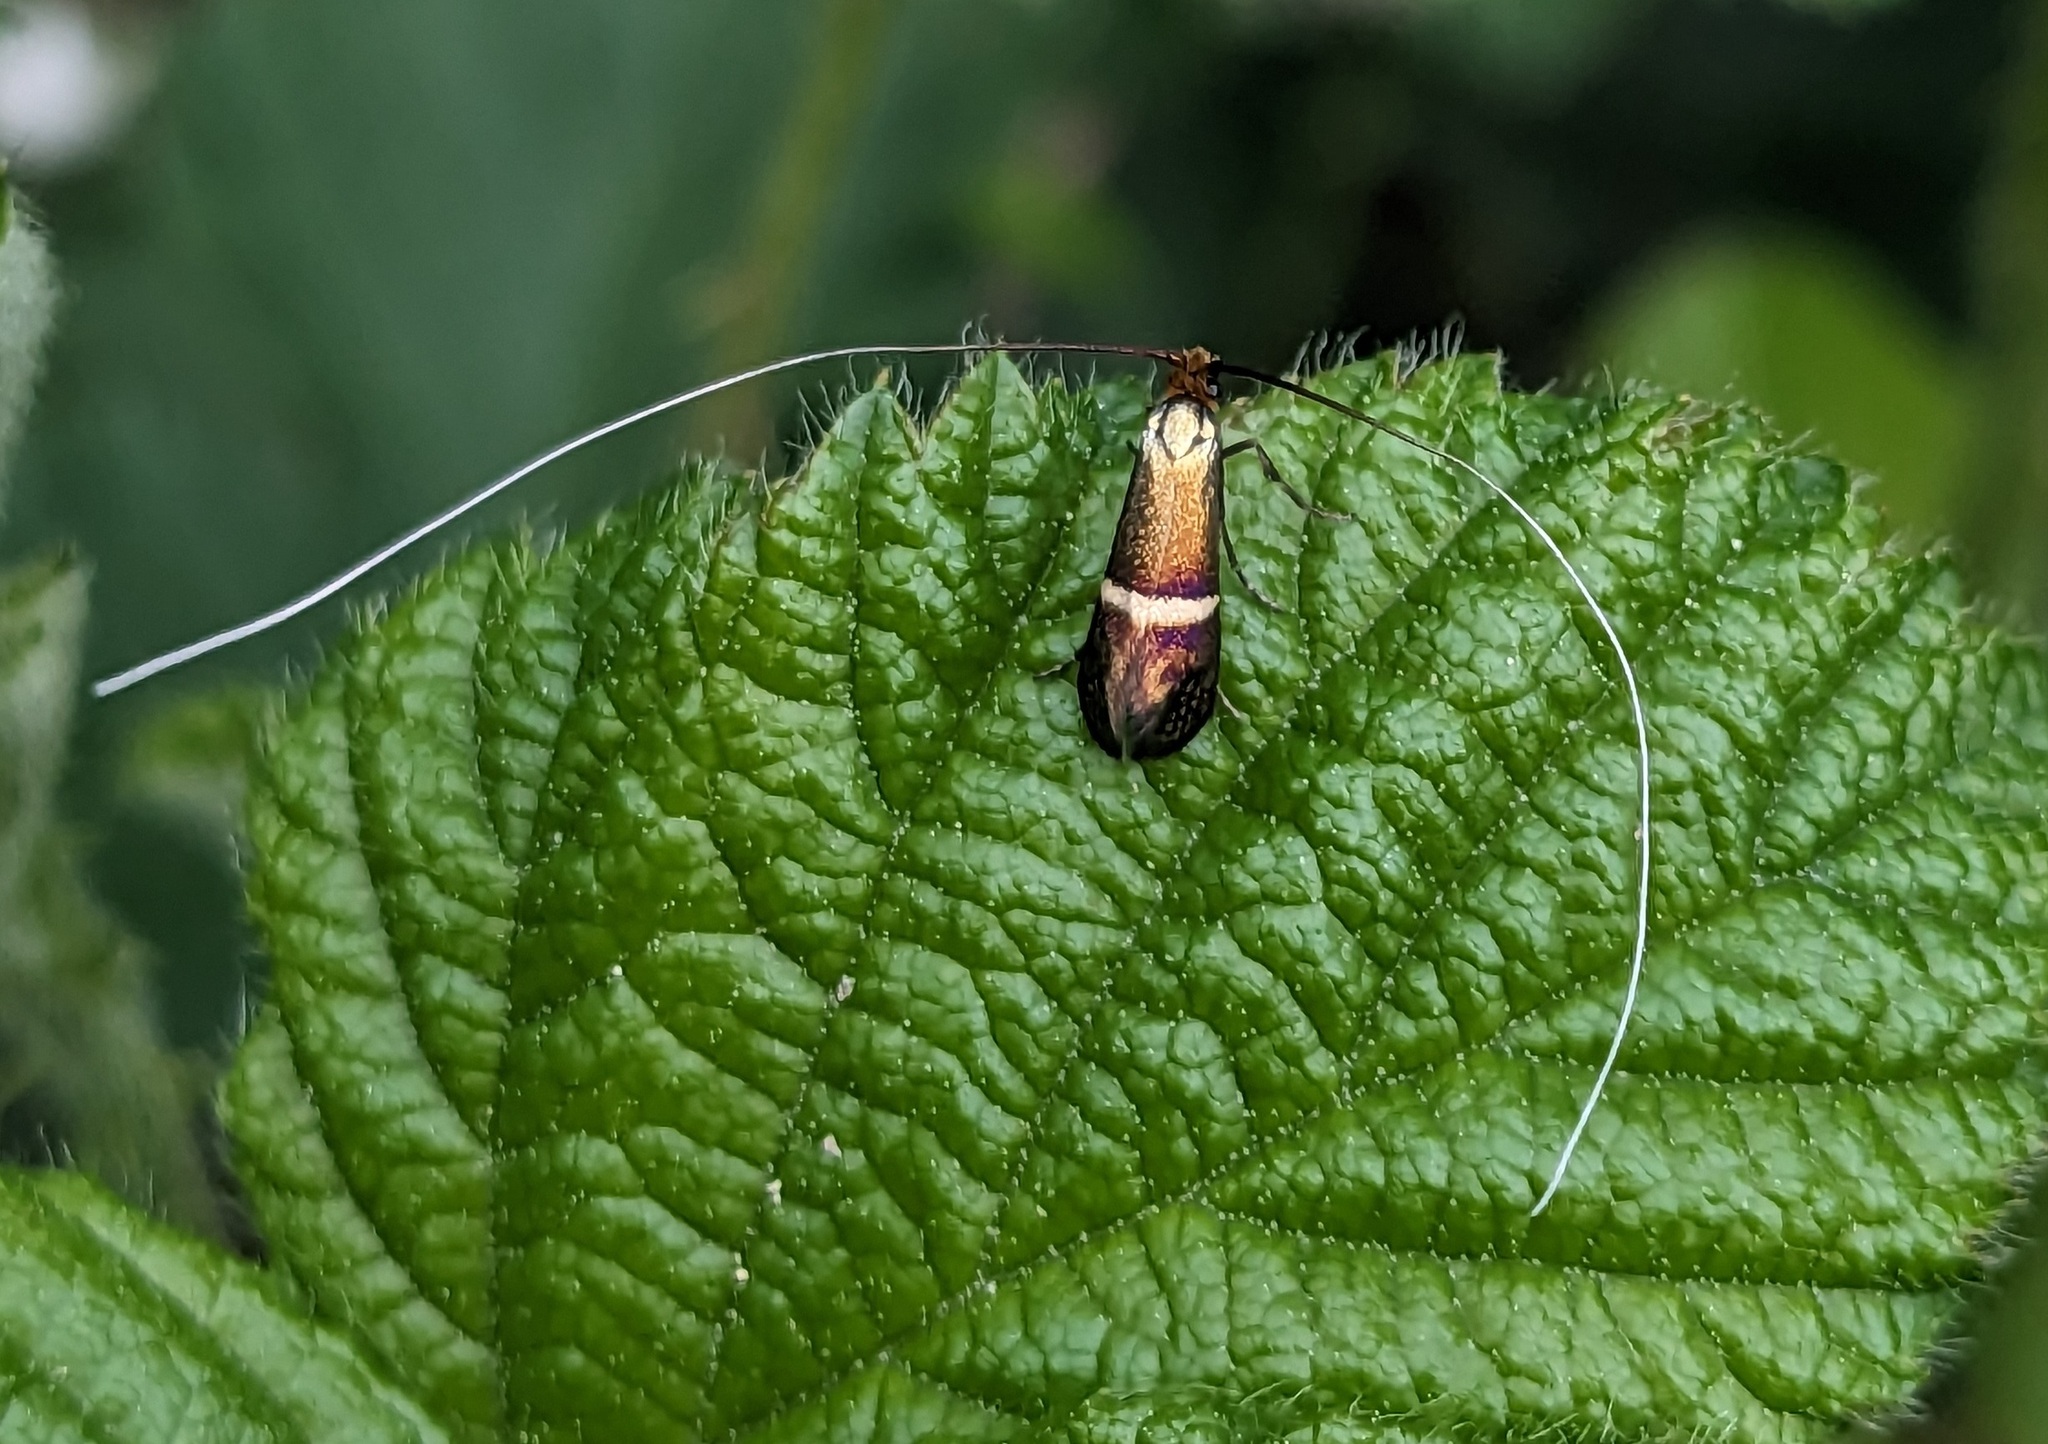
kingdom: Animalia
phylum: Arthropoda
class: Insecta
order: Lepidoptera
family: Adelidae
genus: Adela
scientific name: Adela australis
